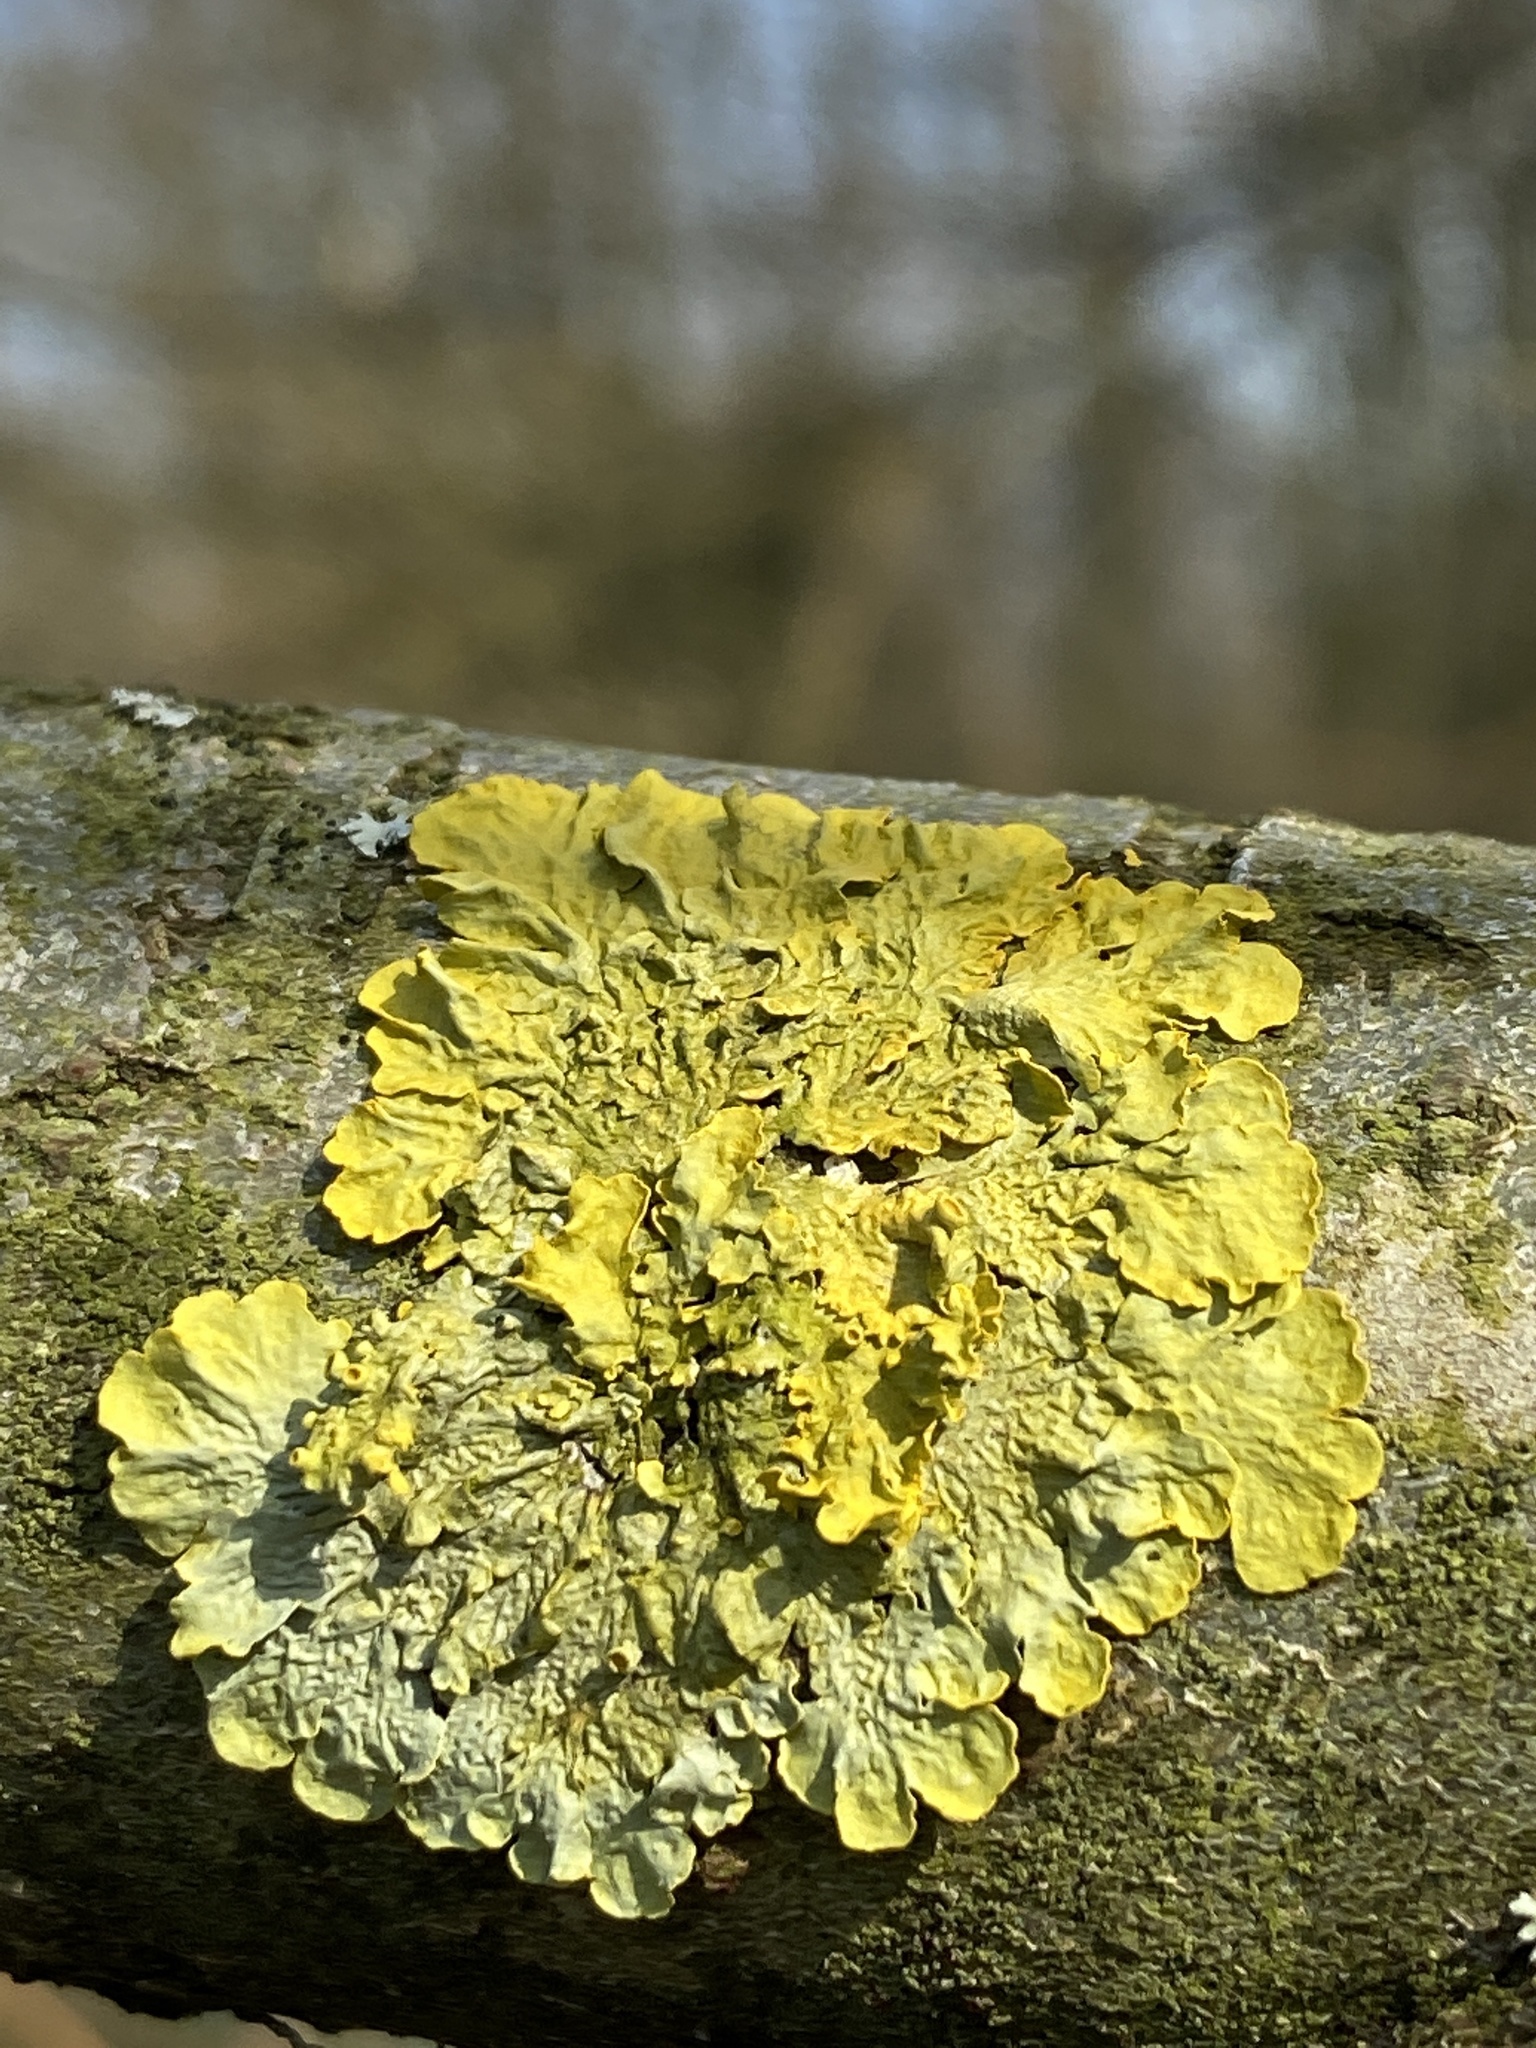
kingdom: Fungi
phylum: Ascomycota
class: Lecanoromycetes
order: Teloschistales
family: Teloschistaceae
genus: Xanthoria
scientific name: Xanthoria parietina
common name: Common orange lichen
